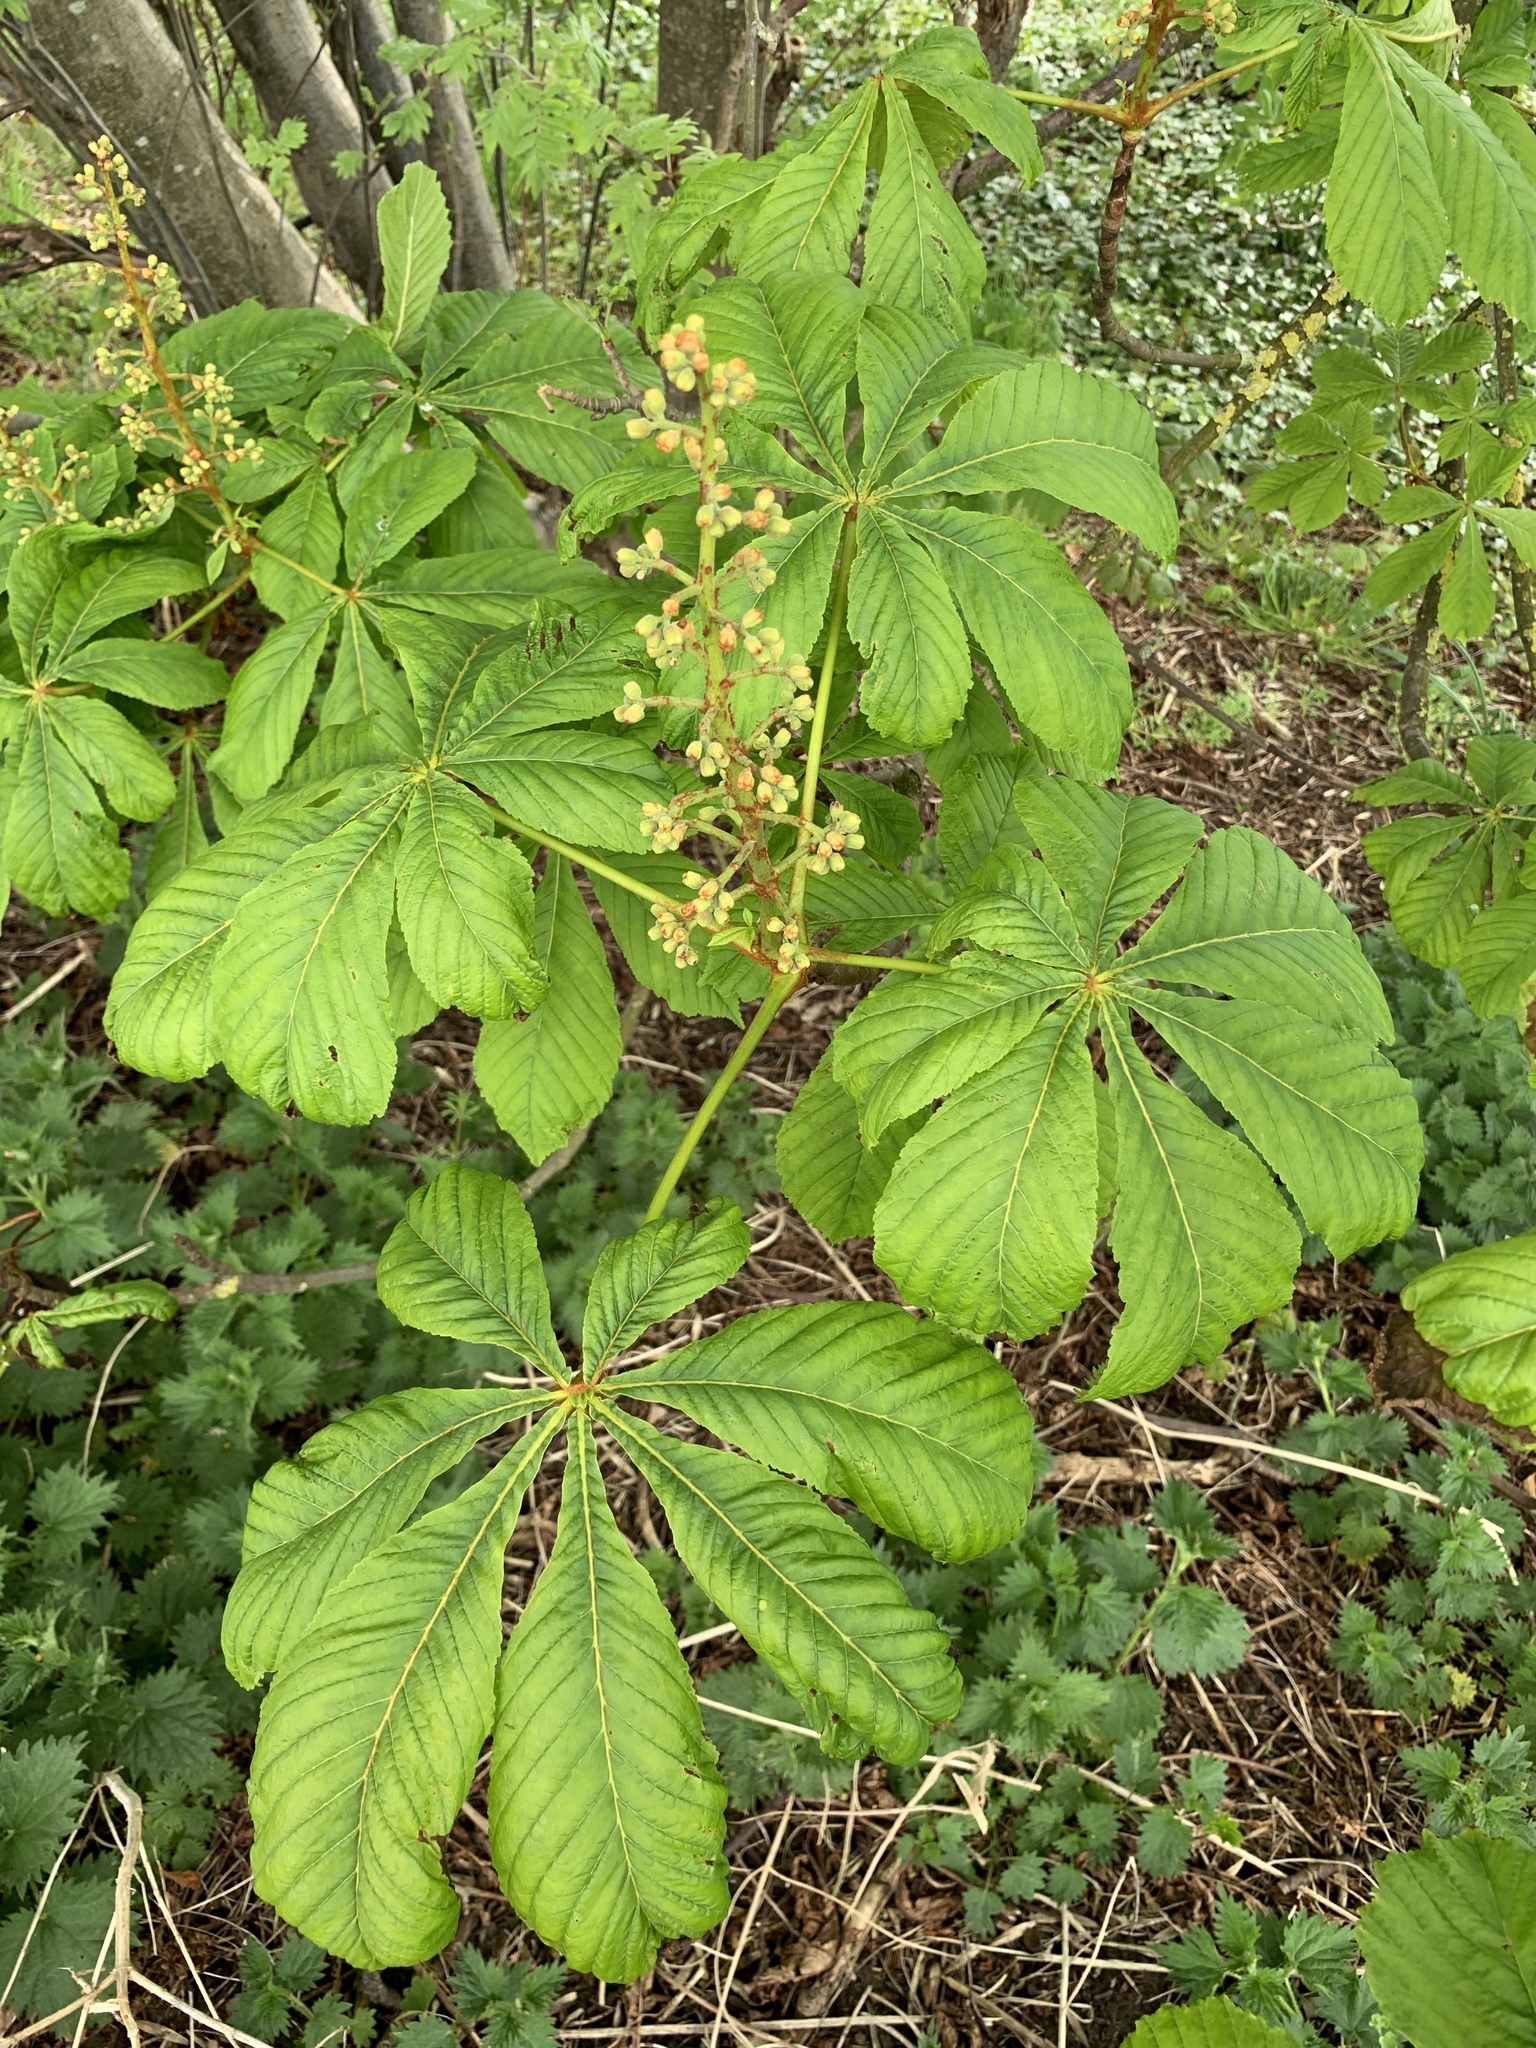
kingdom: Plantae
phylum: Tracheophyta
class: Magnoliopsida
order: Sapindales
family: Sapindaceae
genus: Aesculus
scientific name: Aesculus hippocastanum
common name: Horse-chestnut
